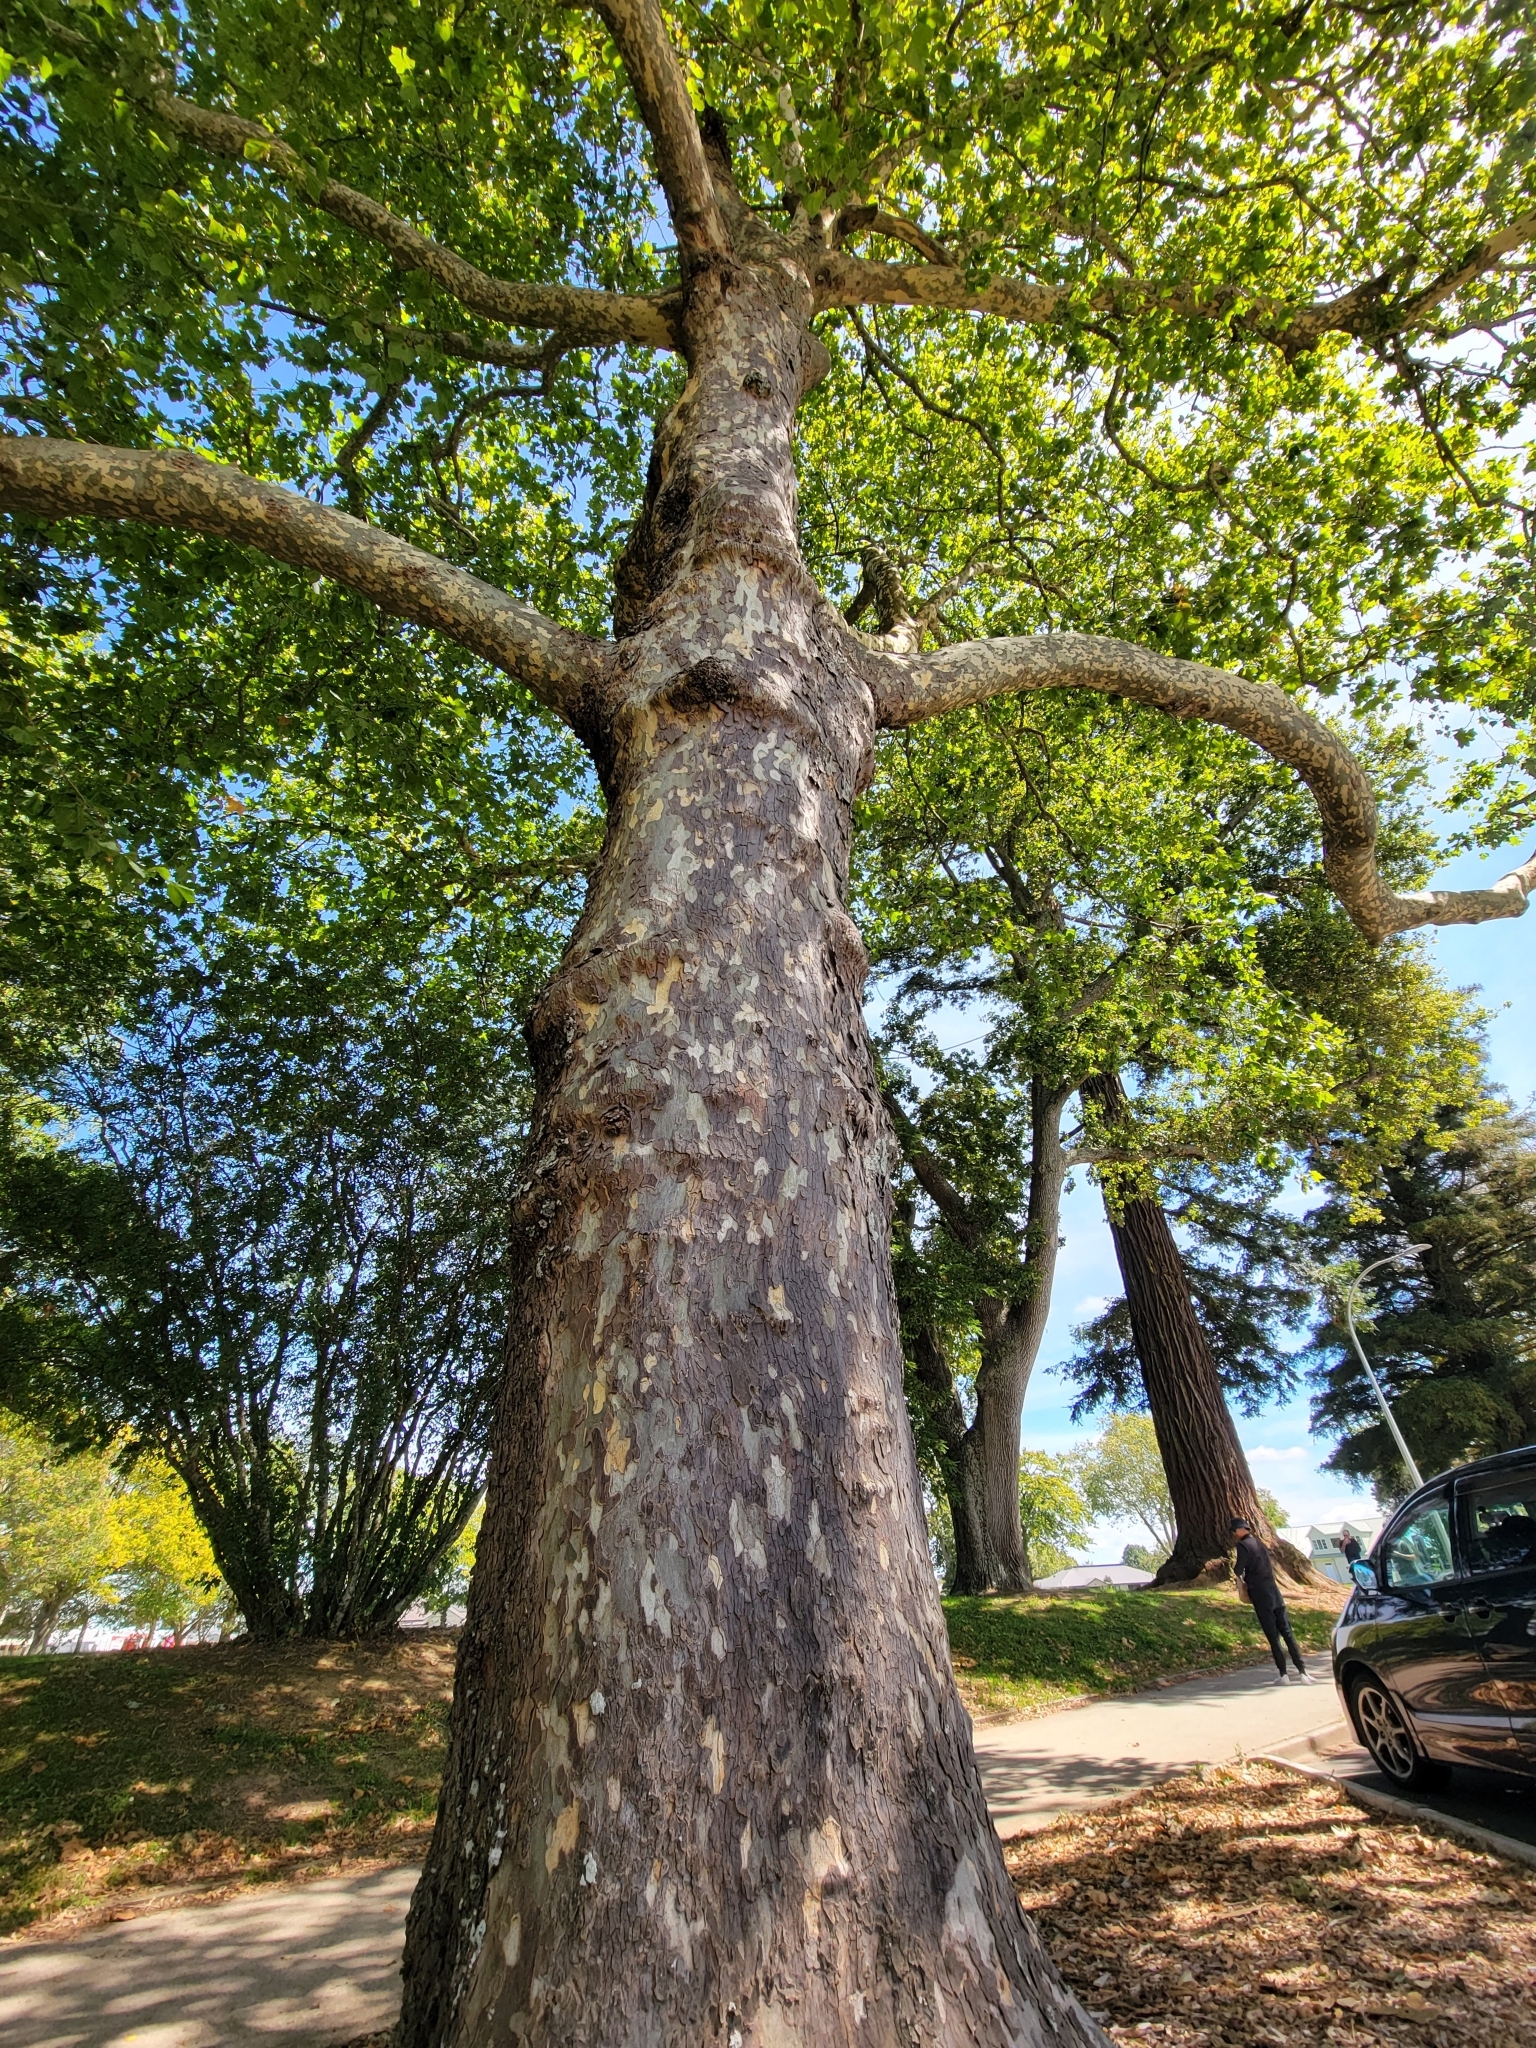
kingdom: Plantae
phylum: Tracheophyta
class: Magnoliopsida
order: Proteales
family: Platanaceae
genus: Platanus
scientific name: Platanus hispanica
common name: London plane
